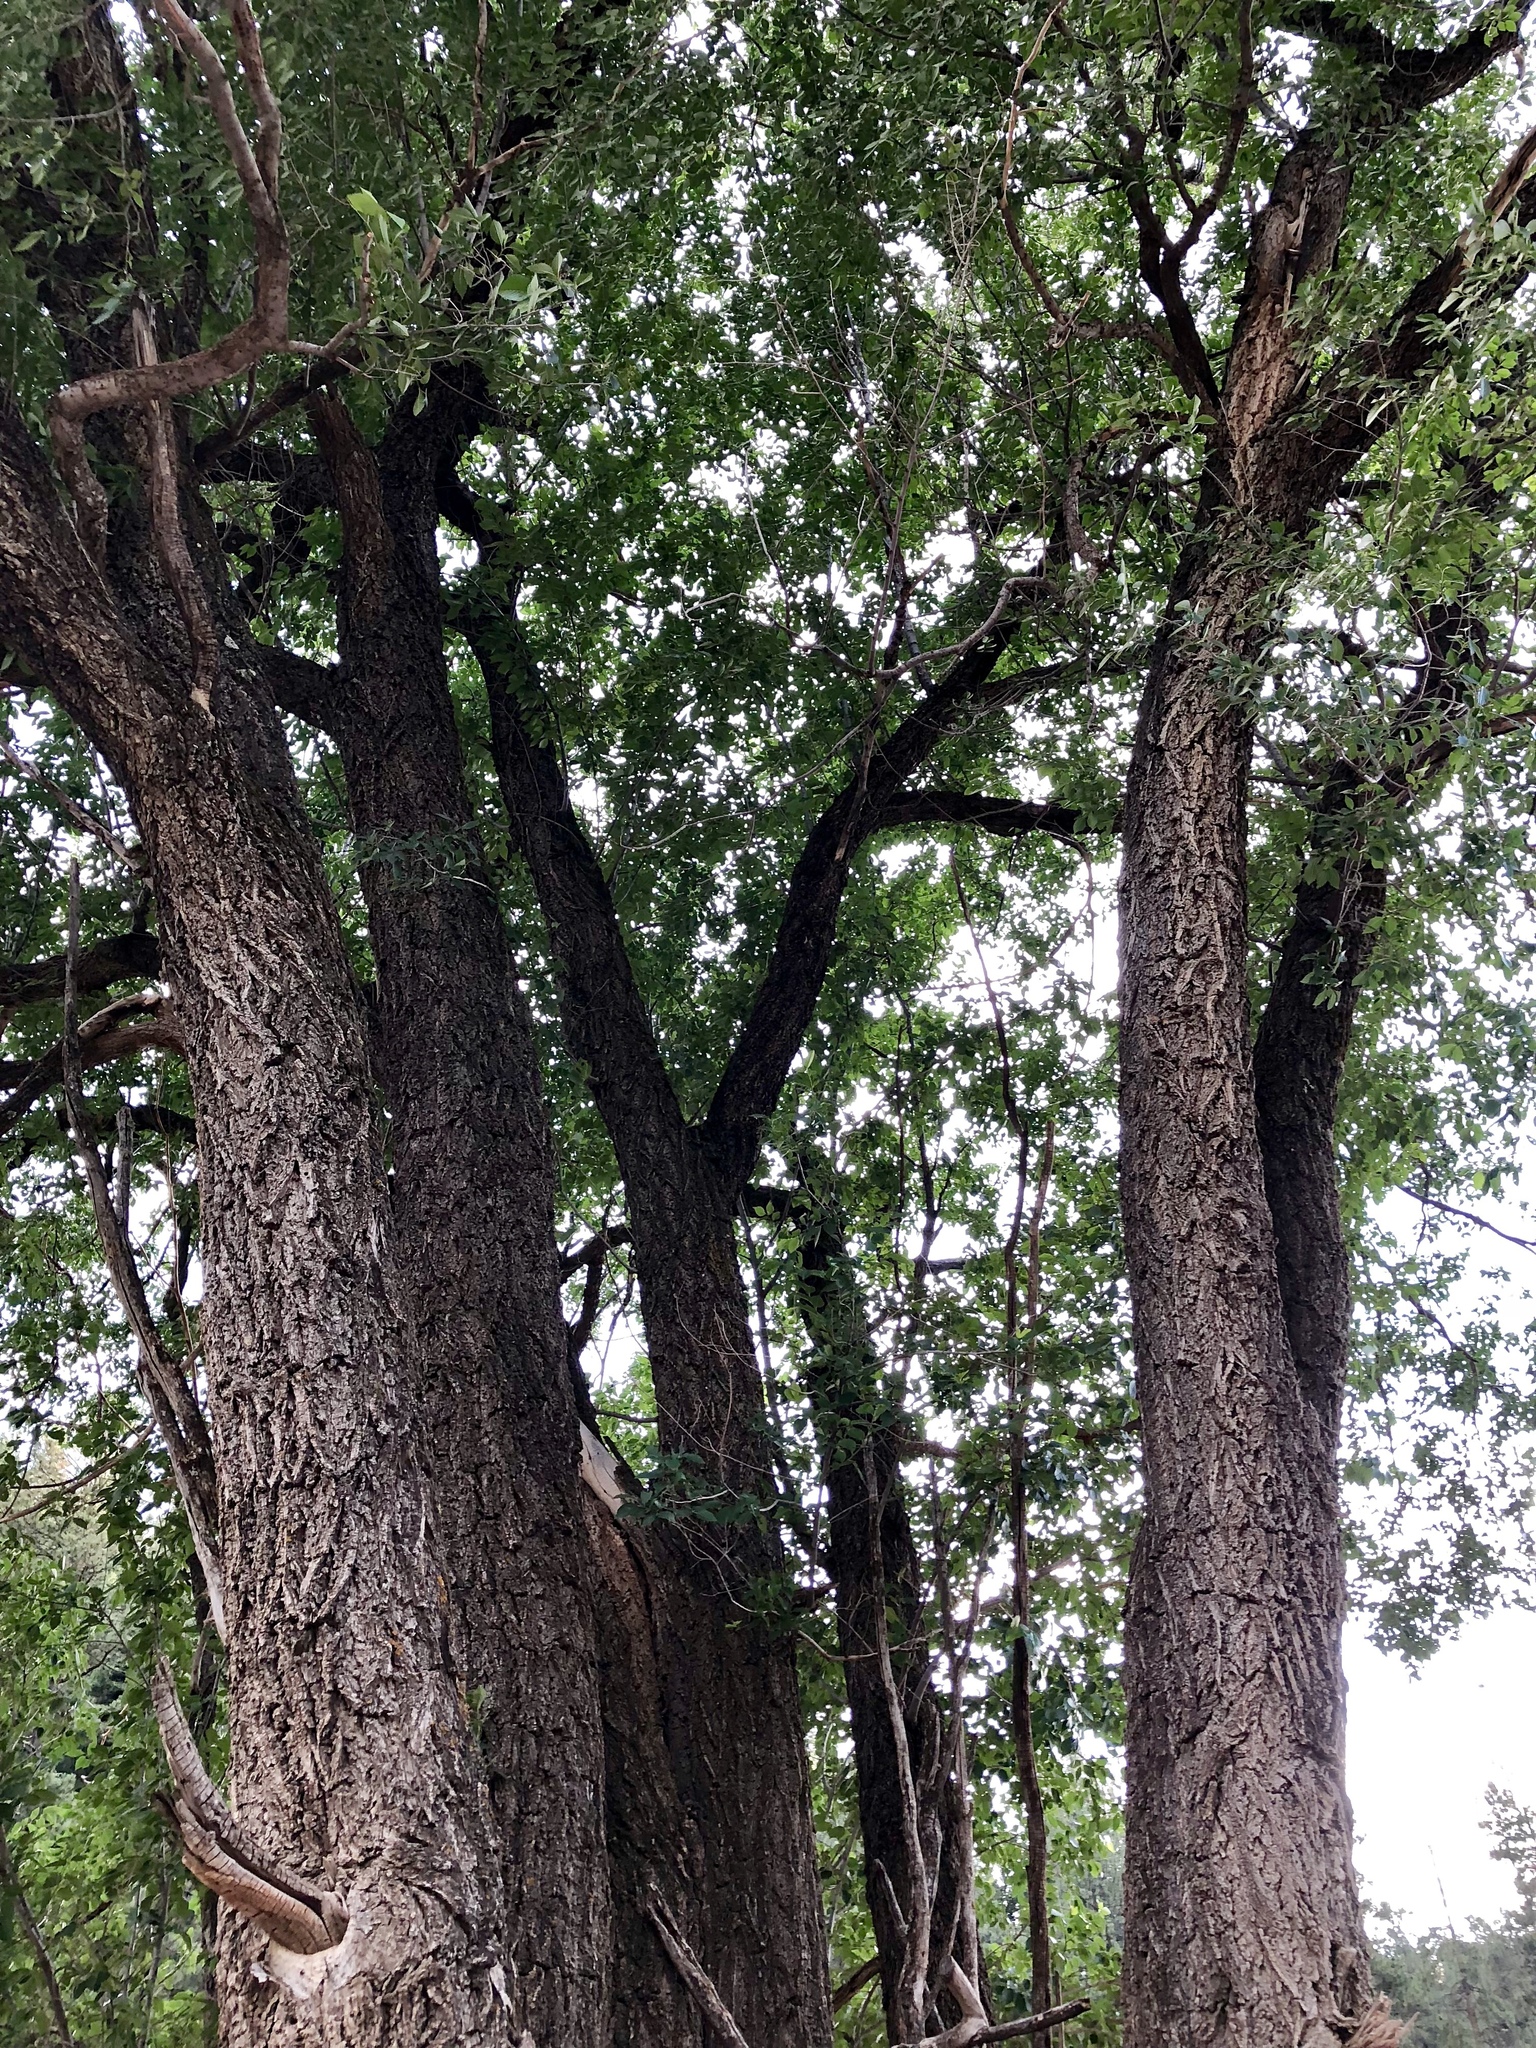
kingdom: Plantae
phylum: Tracheophyta
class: Magnoliopsida
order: Rosales
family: Ulmaceae
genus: Ulmus
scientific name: Ulmus pumila
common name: Siberian elm
